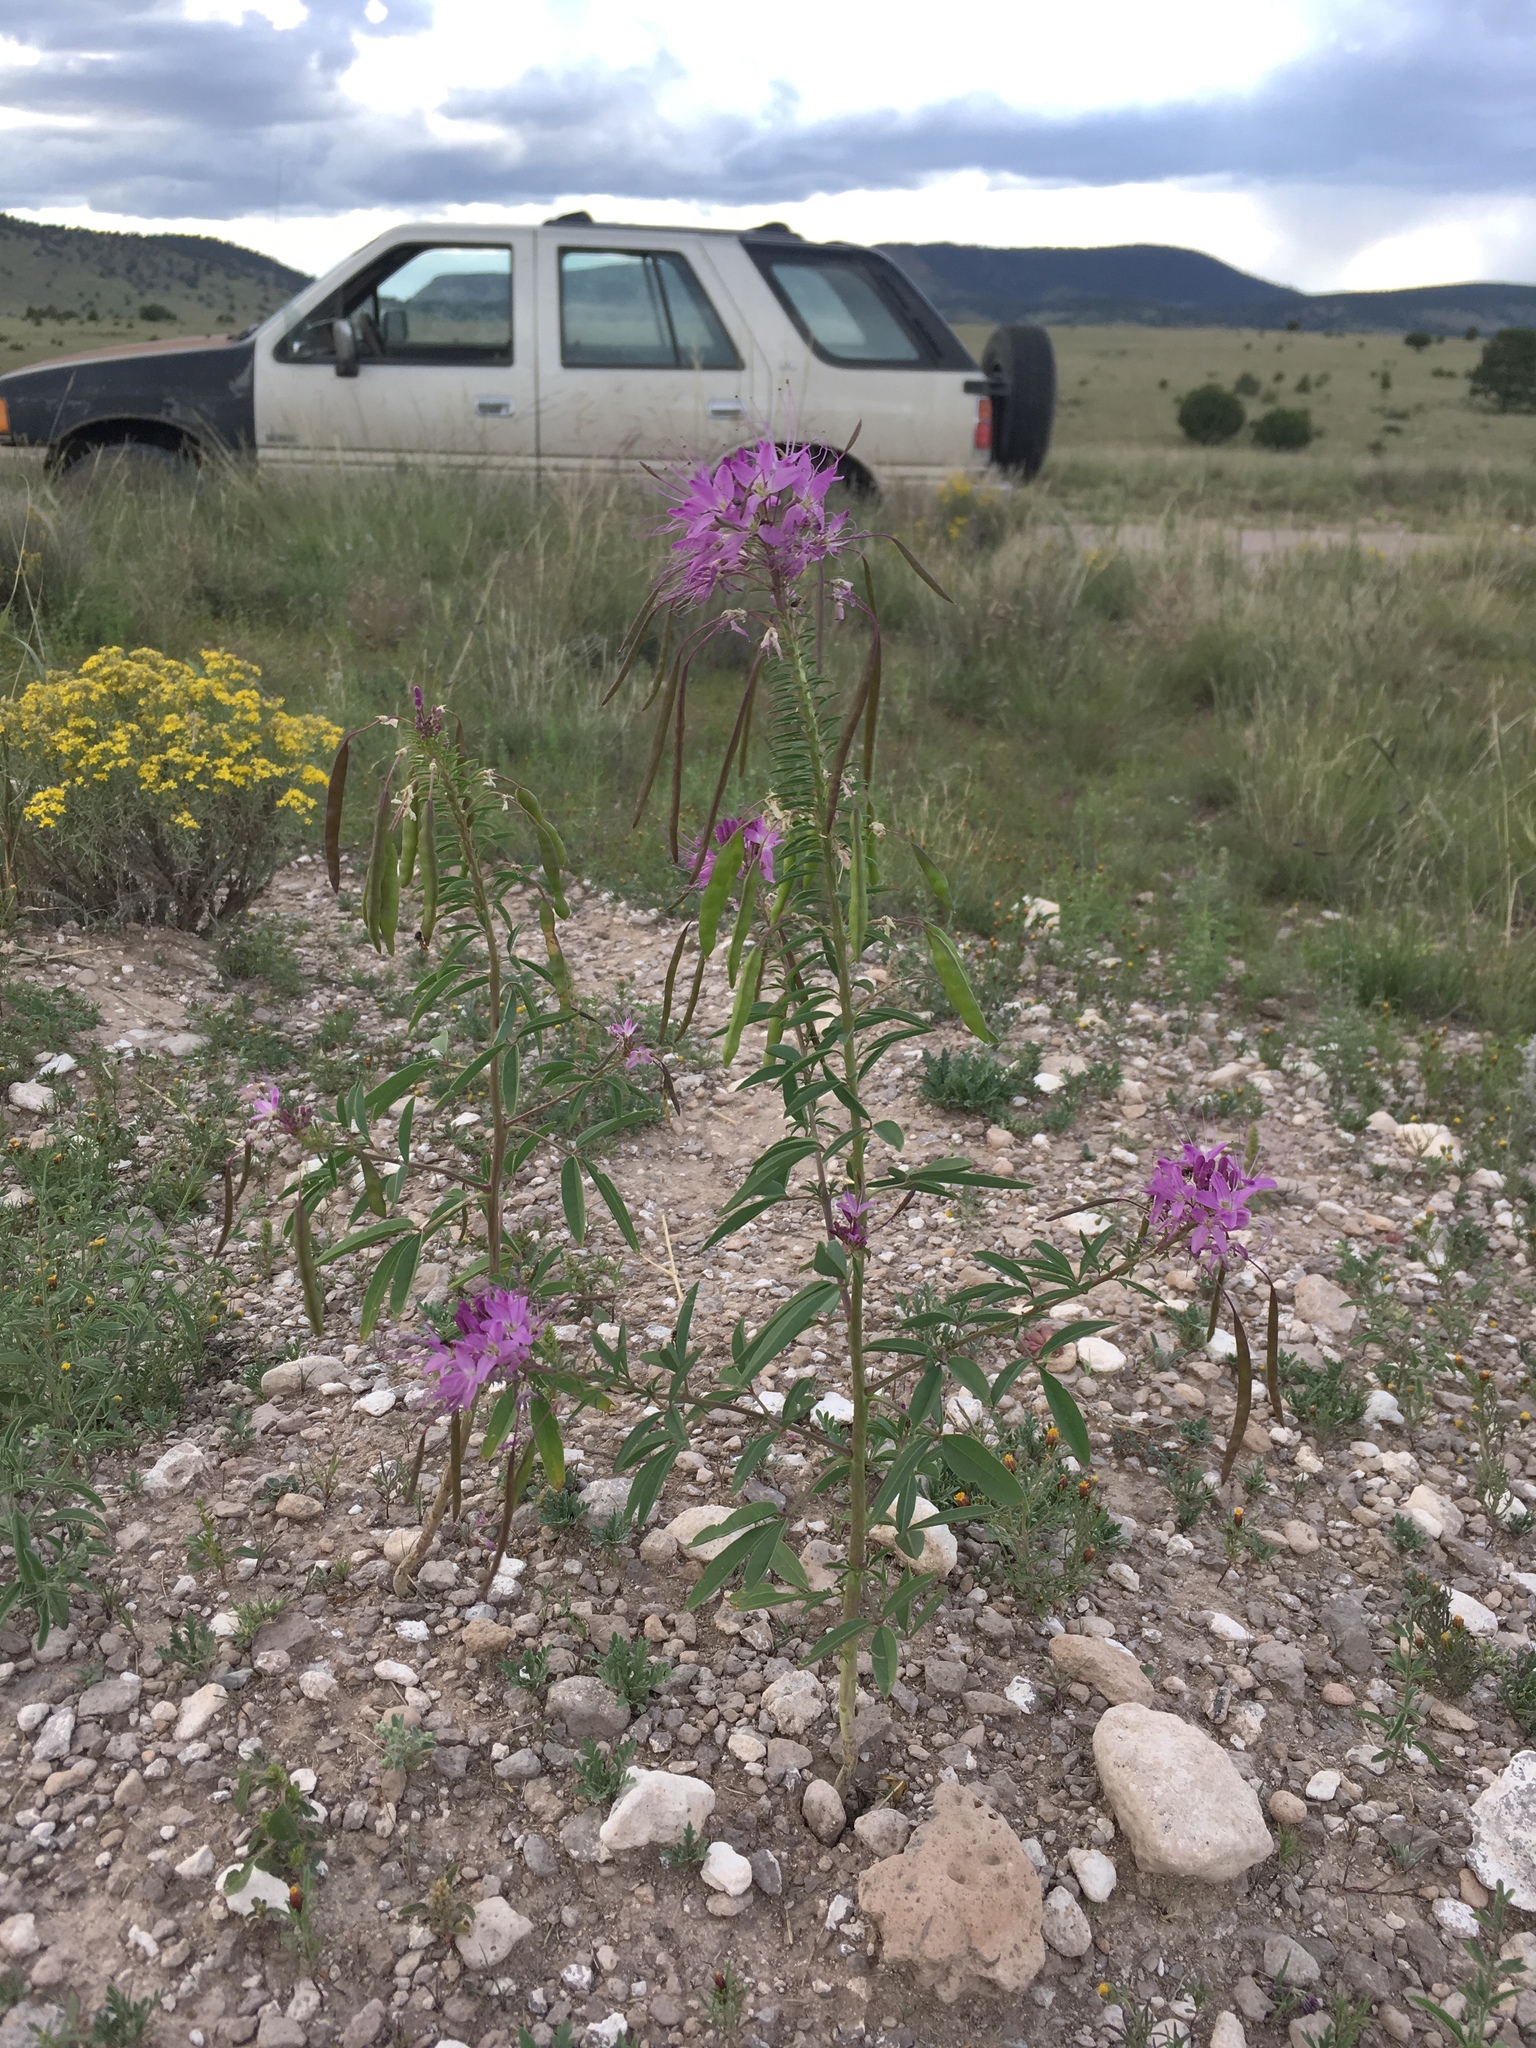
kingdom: Plantae
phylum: Tracheophyta
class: Magnoliopsida
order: Brassicales
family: Cleomaceae
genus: Cleomella
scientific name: Cleomella serrulata
